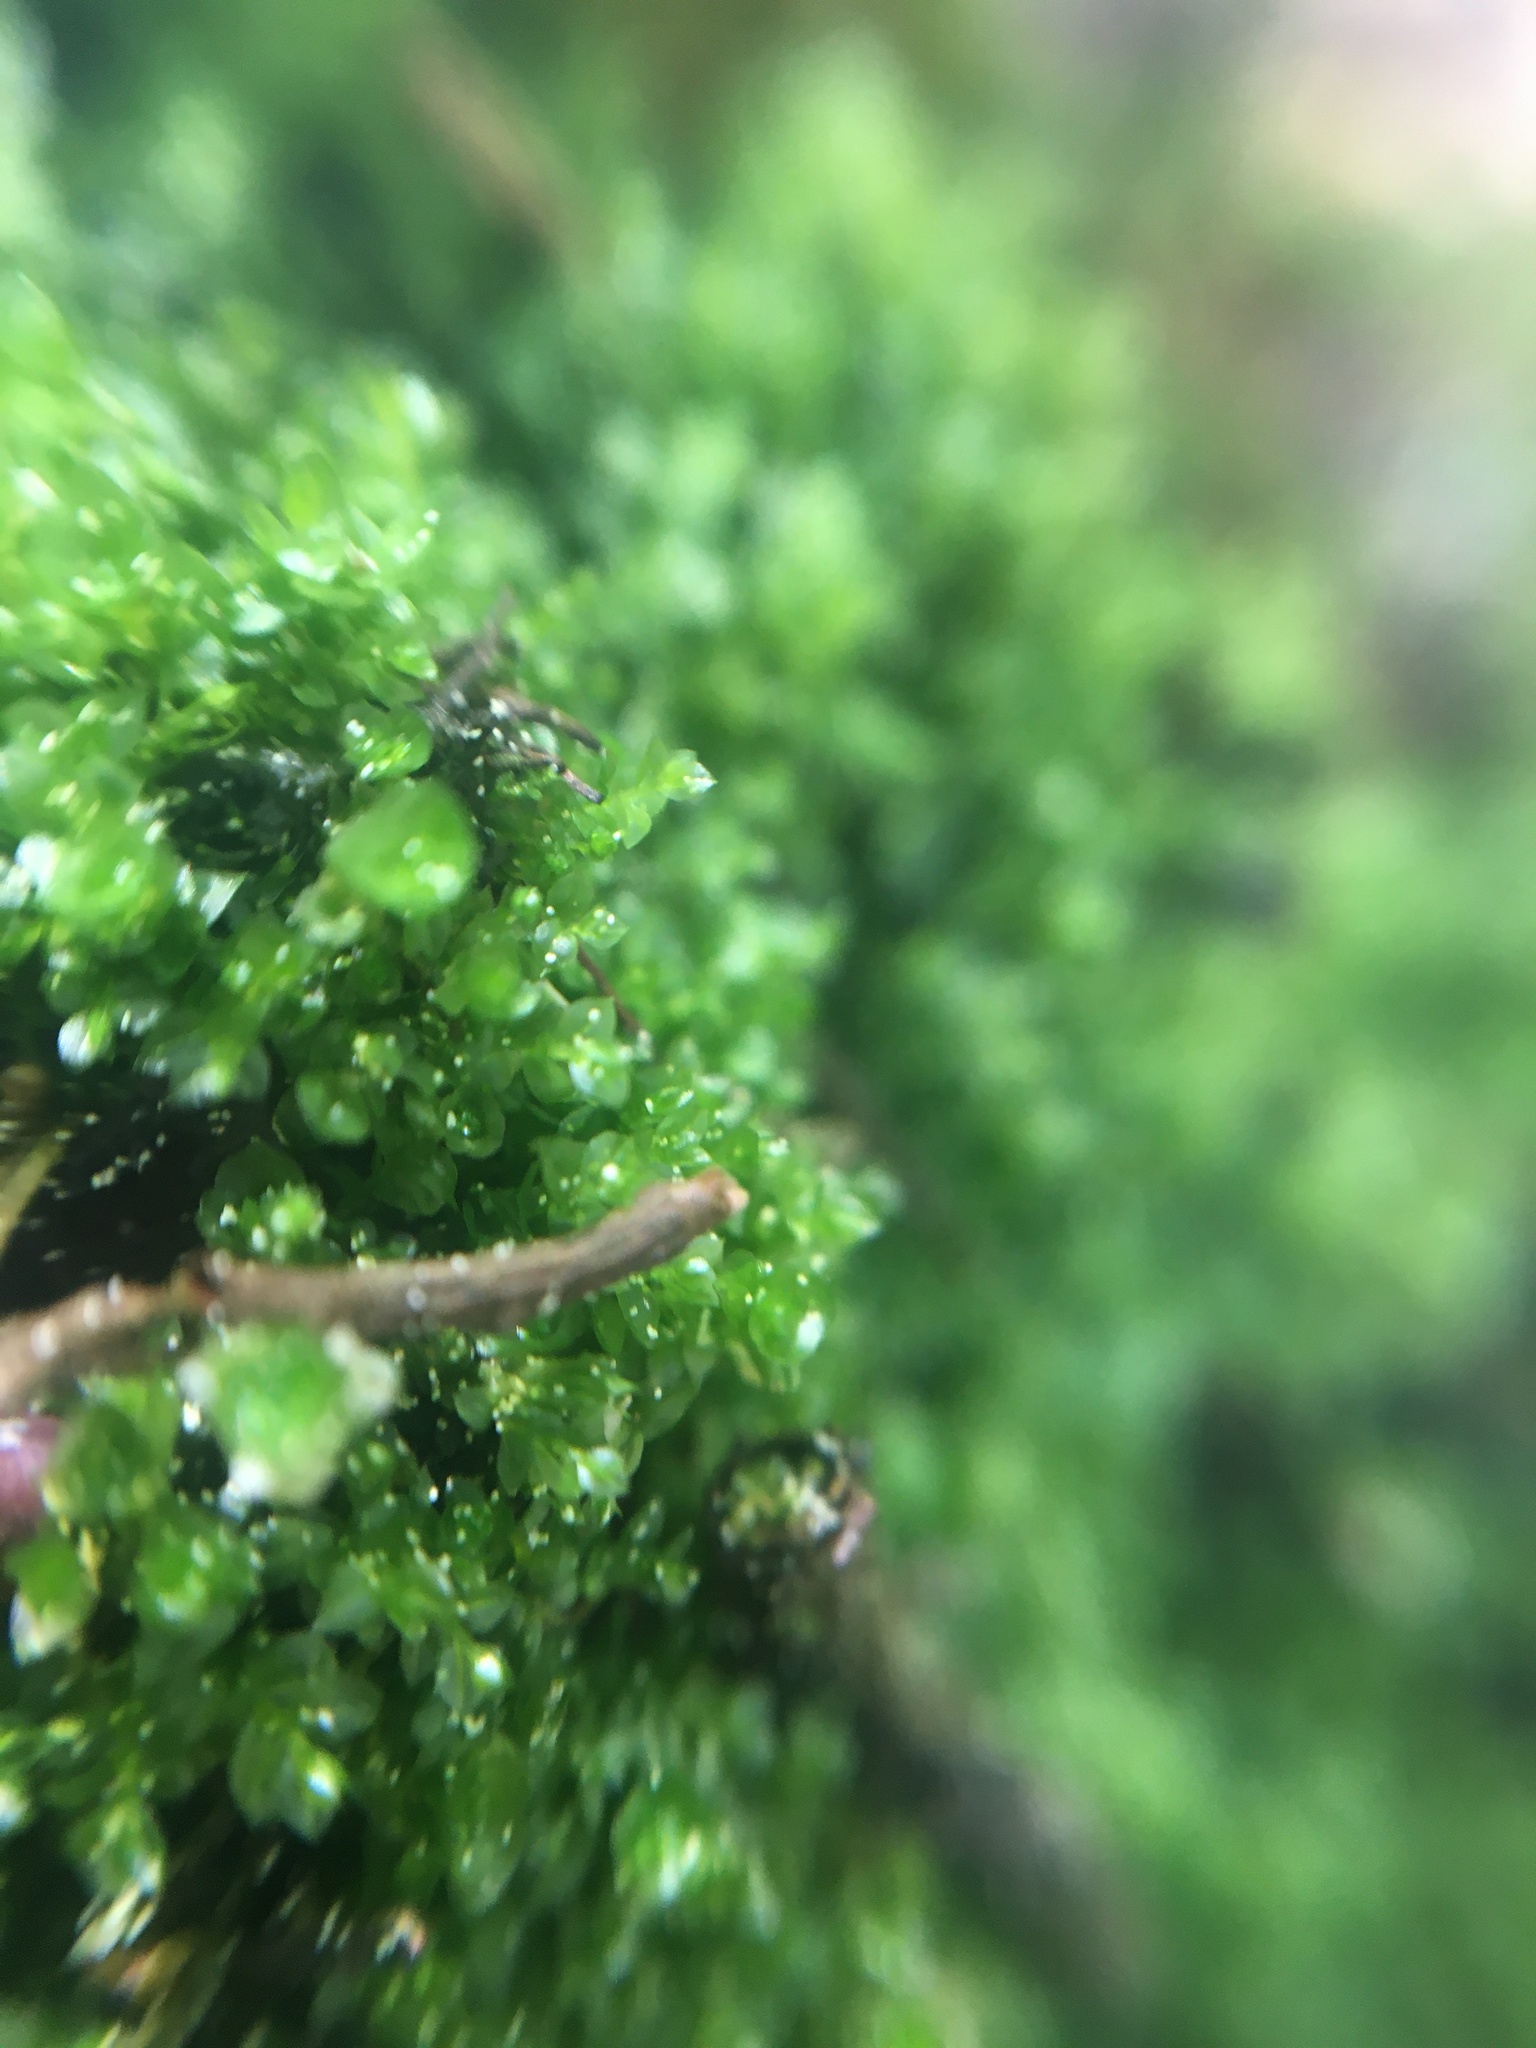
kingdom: Plantae
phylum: Bryophyta
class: Polytrichopsida
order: Tetraphidales
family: Tetraphidaceae
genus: Tetraphis
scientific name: Tetraphis pellucida
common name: Common four-toothed moss
